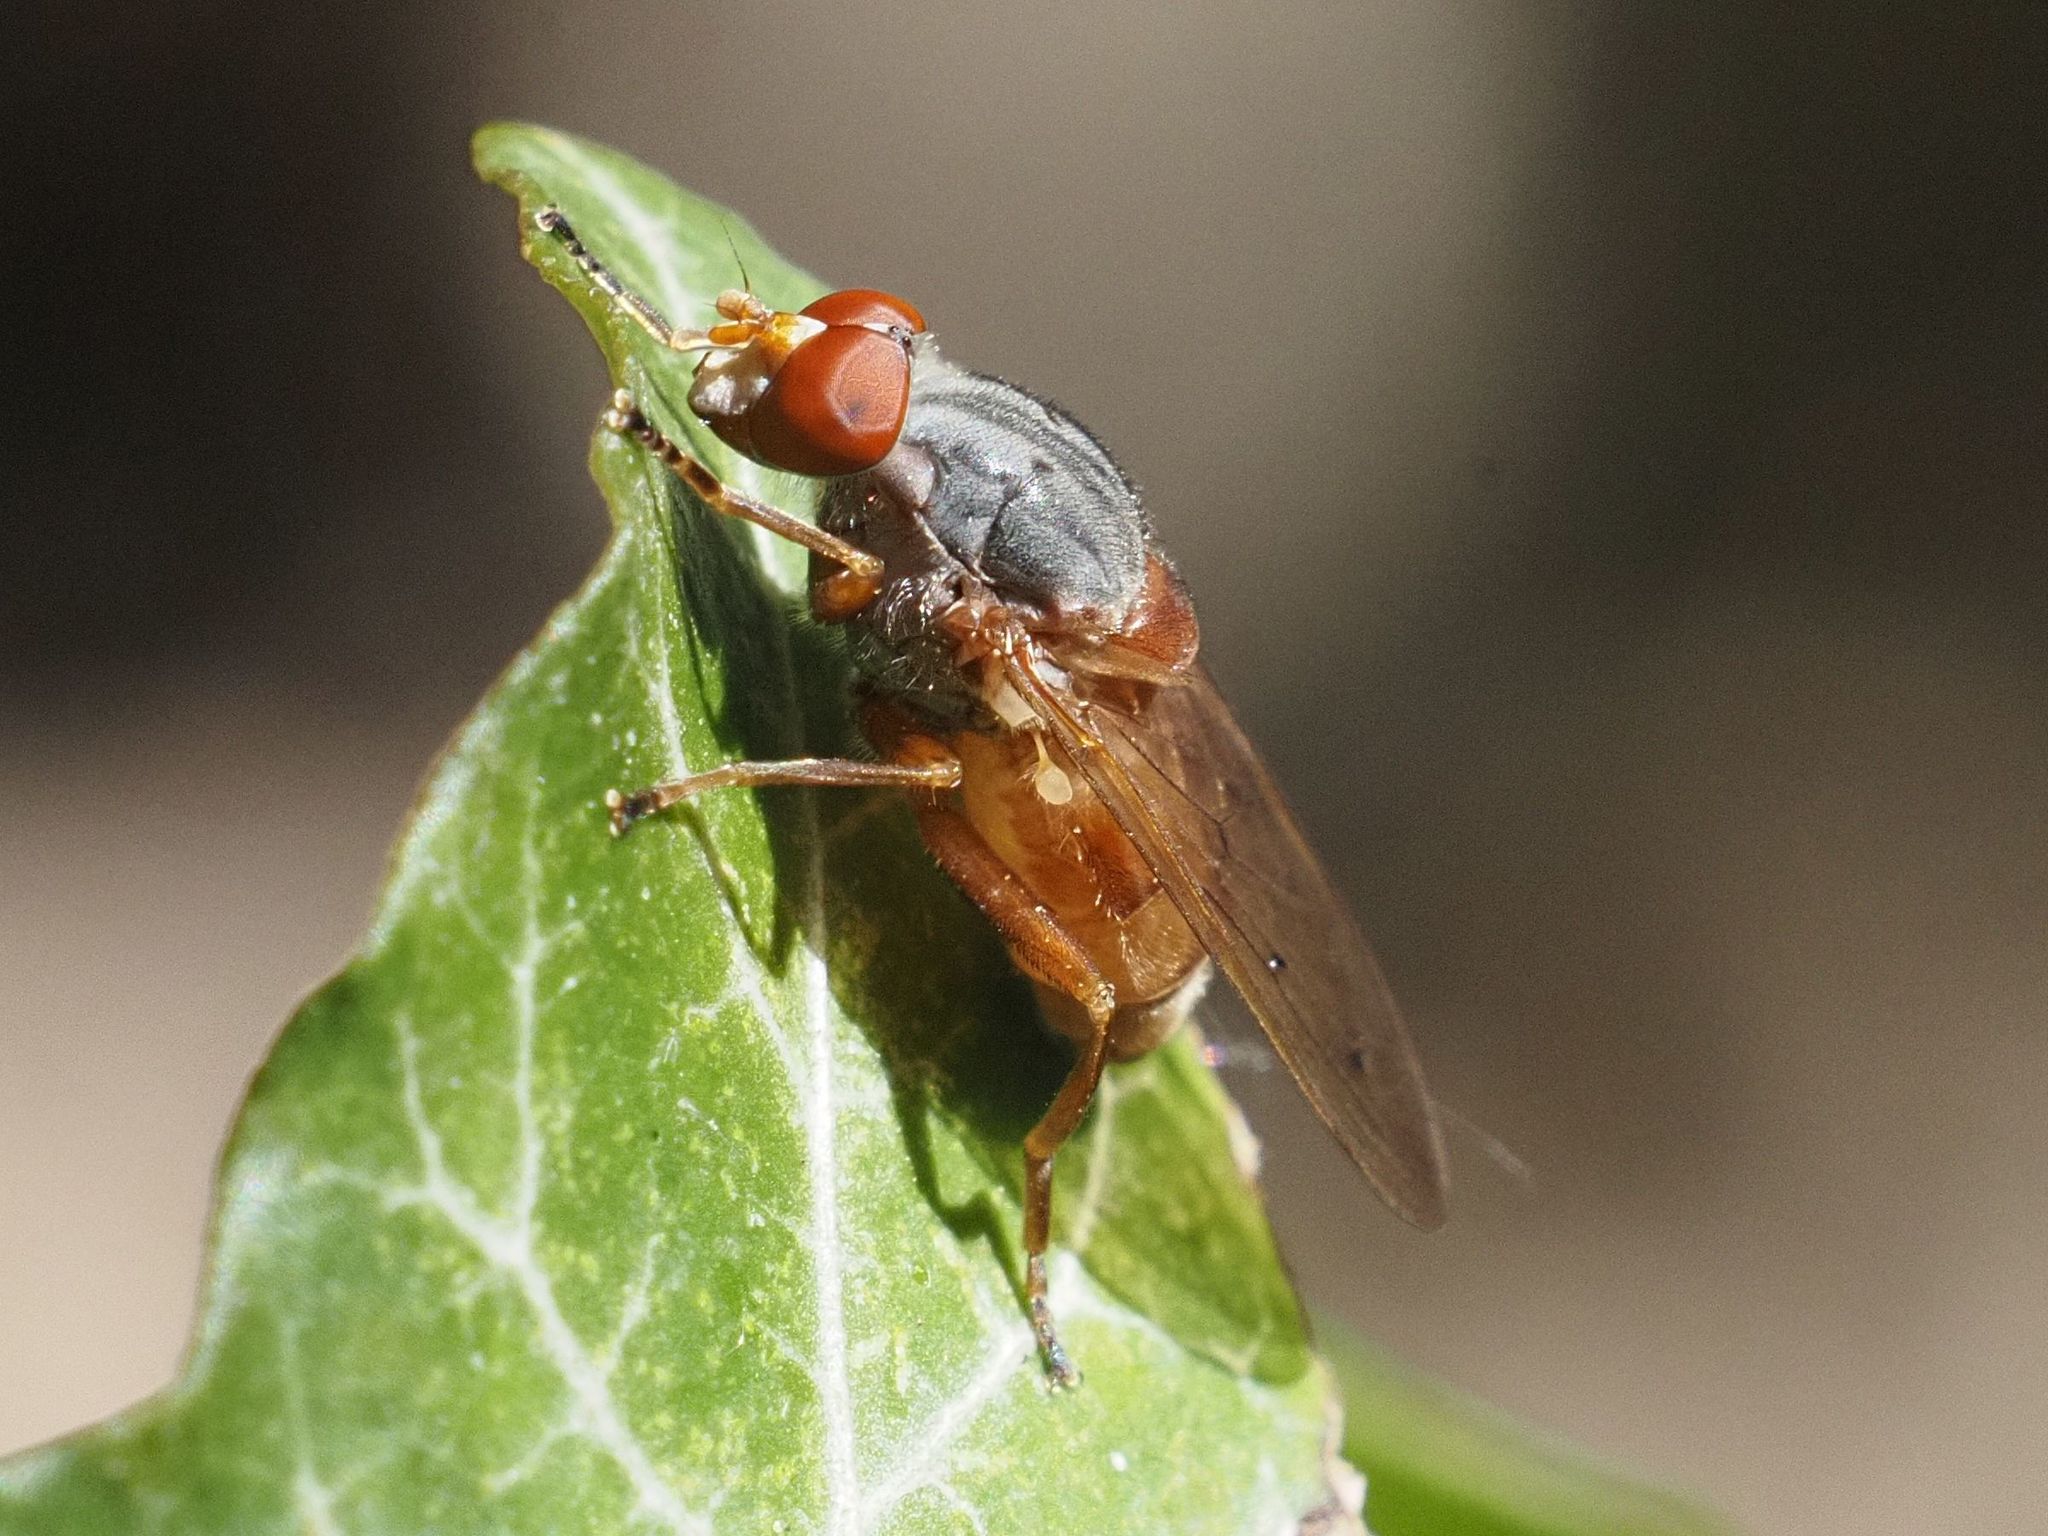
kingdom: Animalia
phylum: Arthropoda
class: Insecta
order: Diptera
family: Syrphidae
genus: Brachyopa
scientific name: Brachyopa maculipennis
